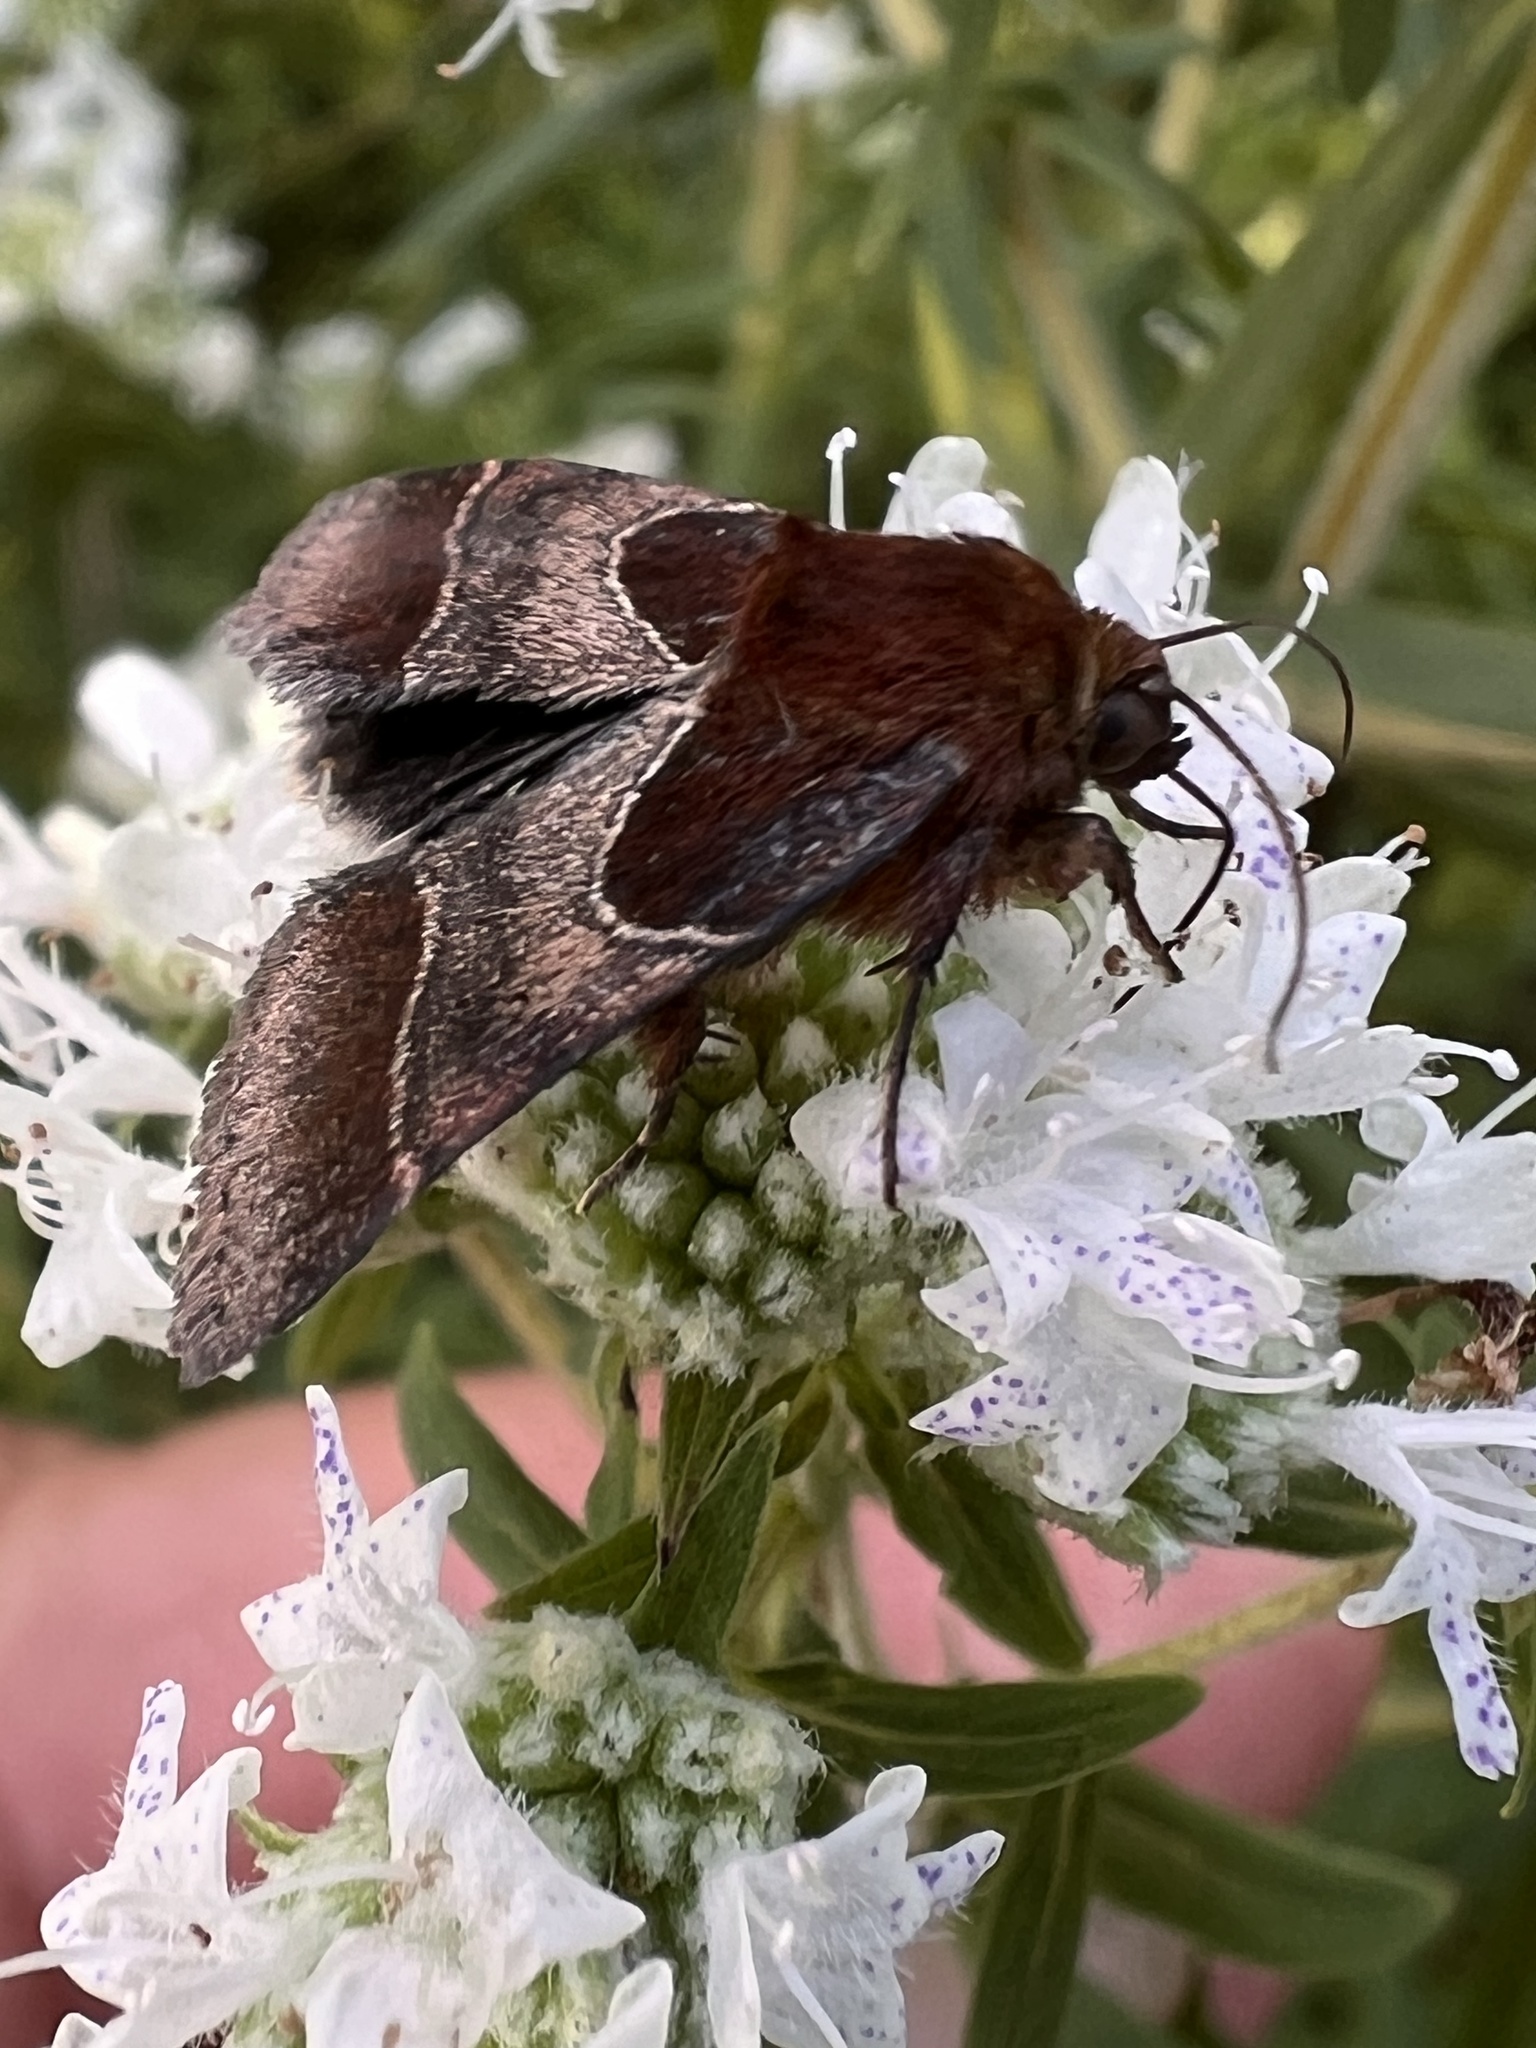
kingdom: Animalia
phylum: Arthropoda
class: Insecta
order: Lepidoptera
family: Noctuidae
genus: Schinia
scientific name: Schinia arcigera
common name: Arcigera flower moth
